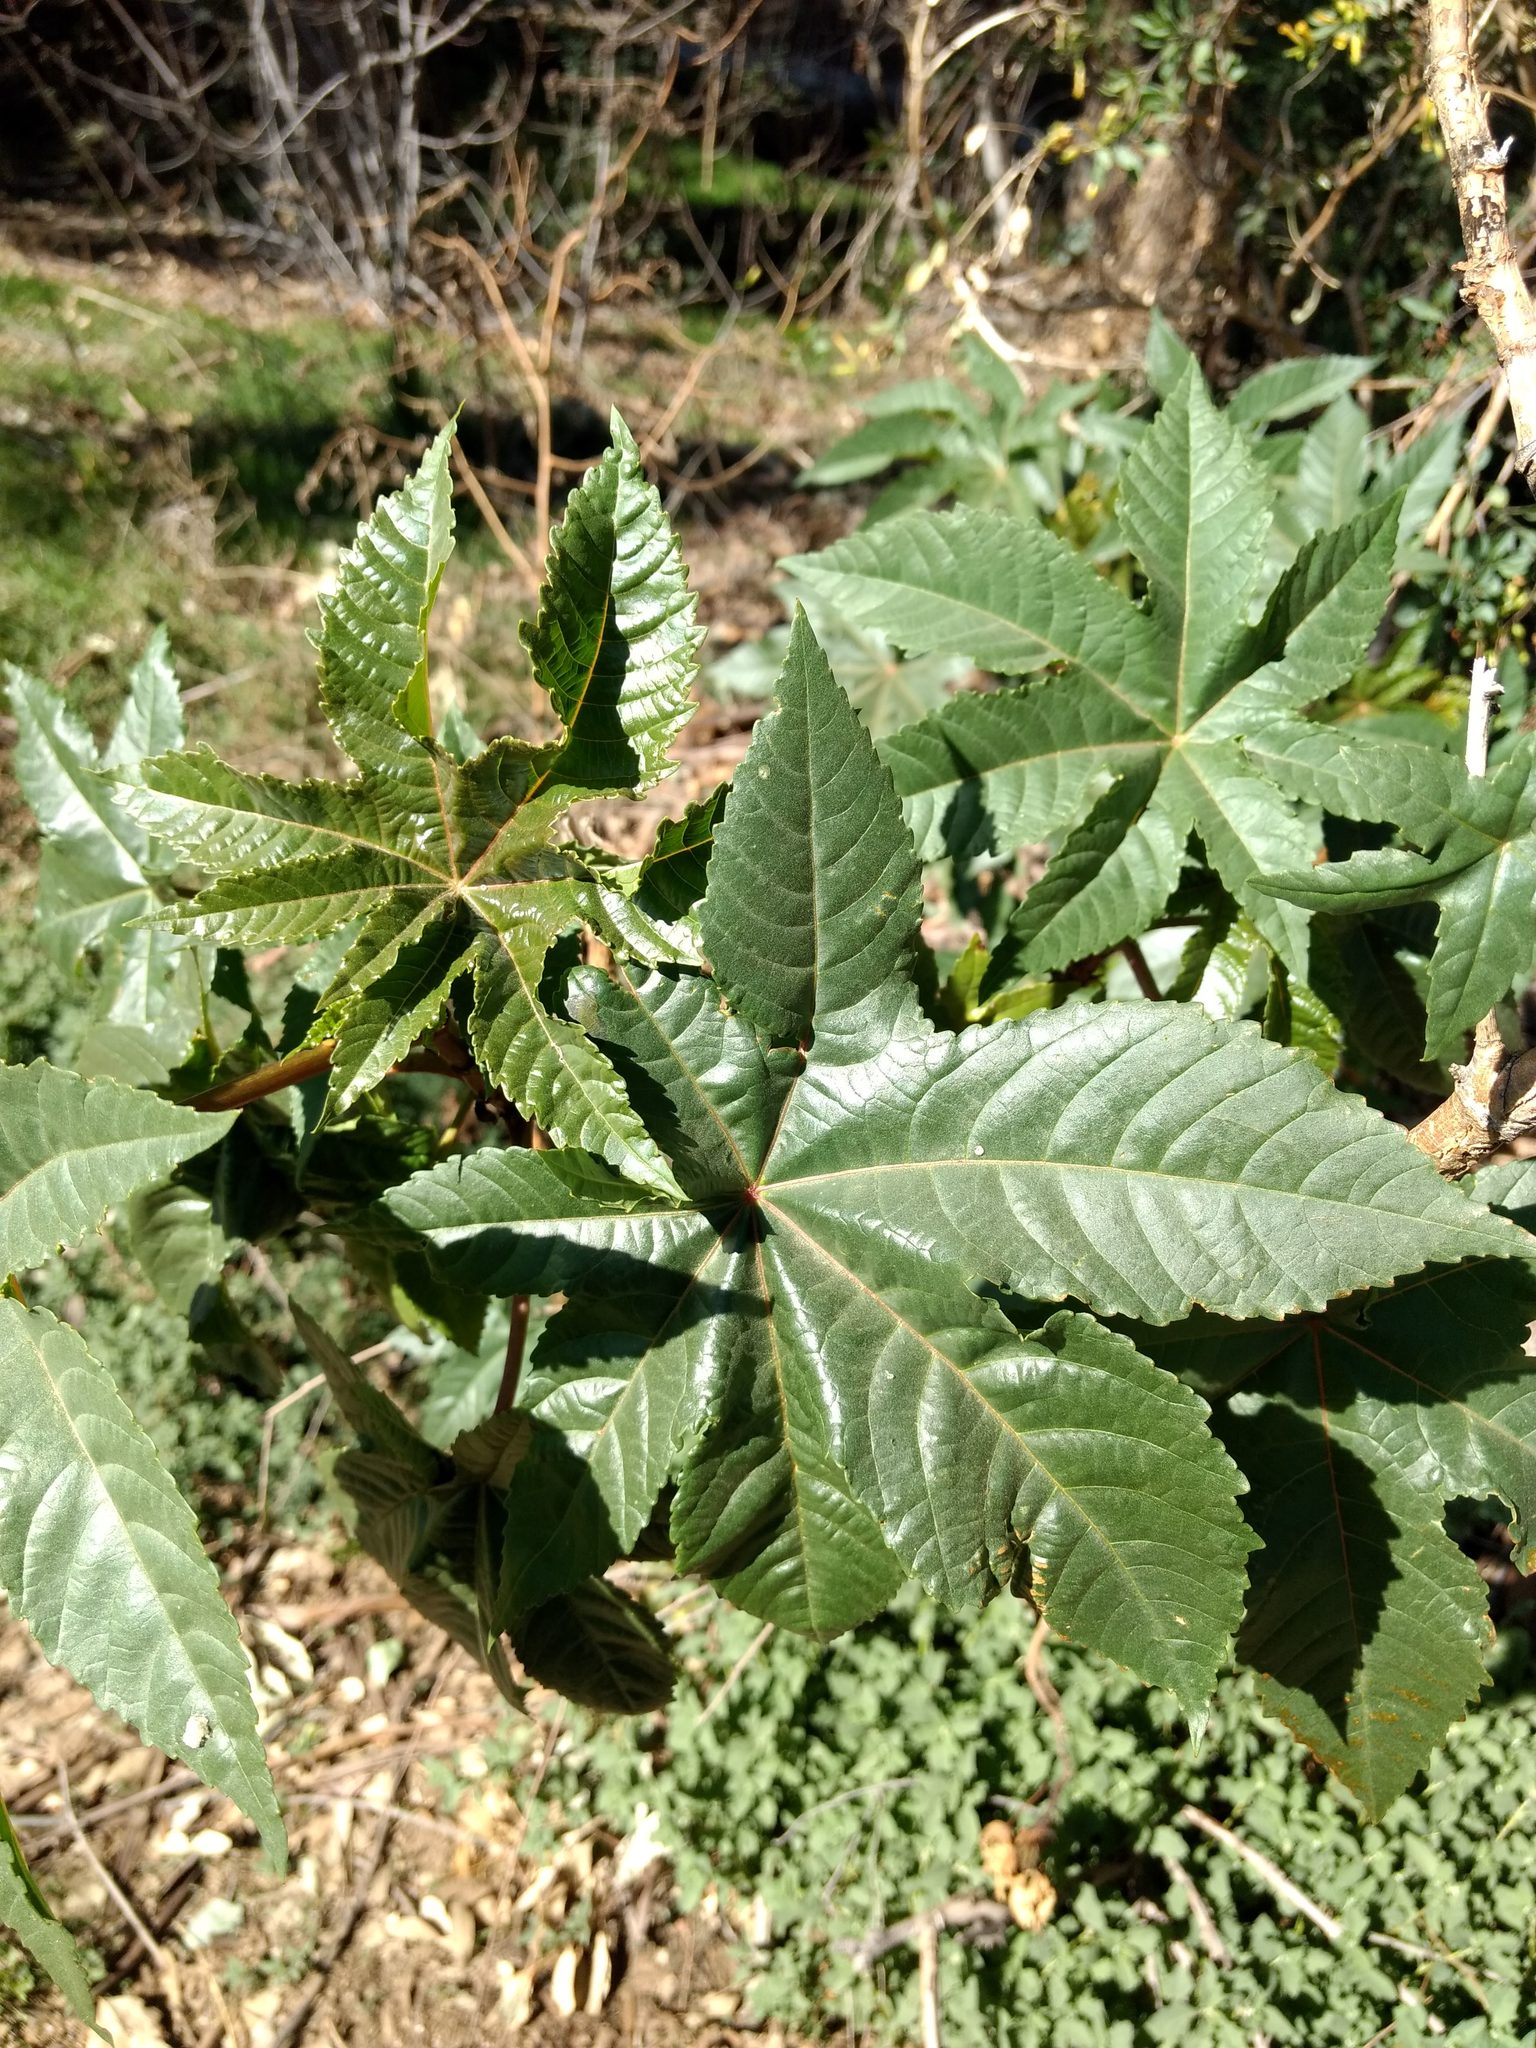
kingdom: Plantae
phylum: Tracheophyta
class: Magnoliopsida
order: Malpighiales
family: Euphorbiaceae
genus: Ricinus
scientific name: Ricinus communis
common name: Castor-oil-plant
